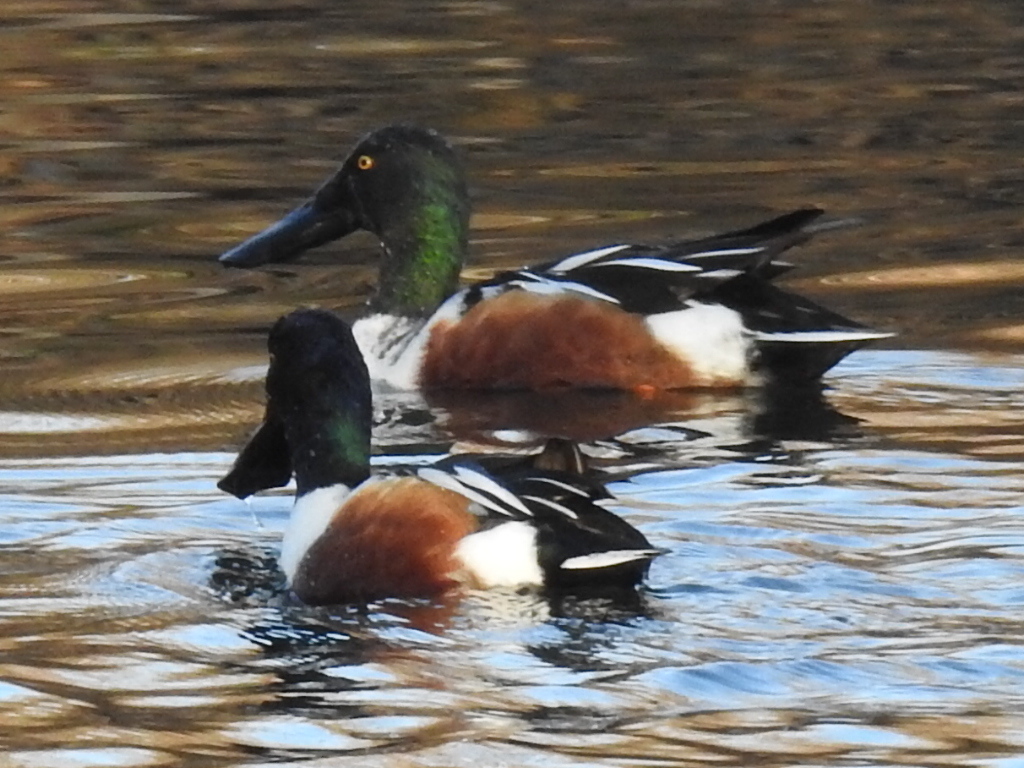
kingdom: Animalia
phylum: Chordata
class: Aves
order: Anseriformes
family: Anatidae
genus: Spatula
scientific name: Spatula clypeata
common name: Northern shoveler
